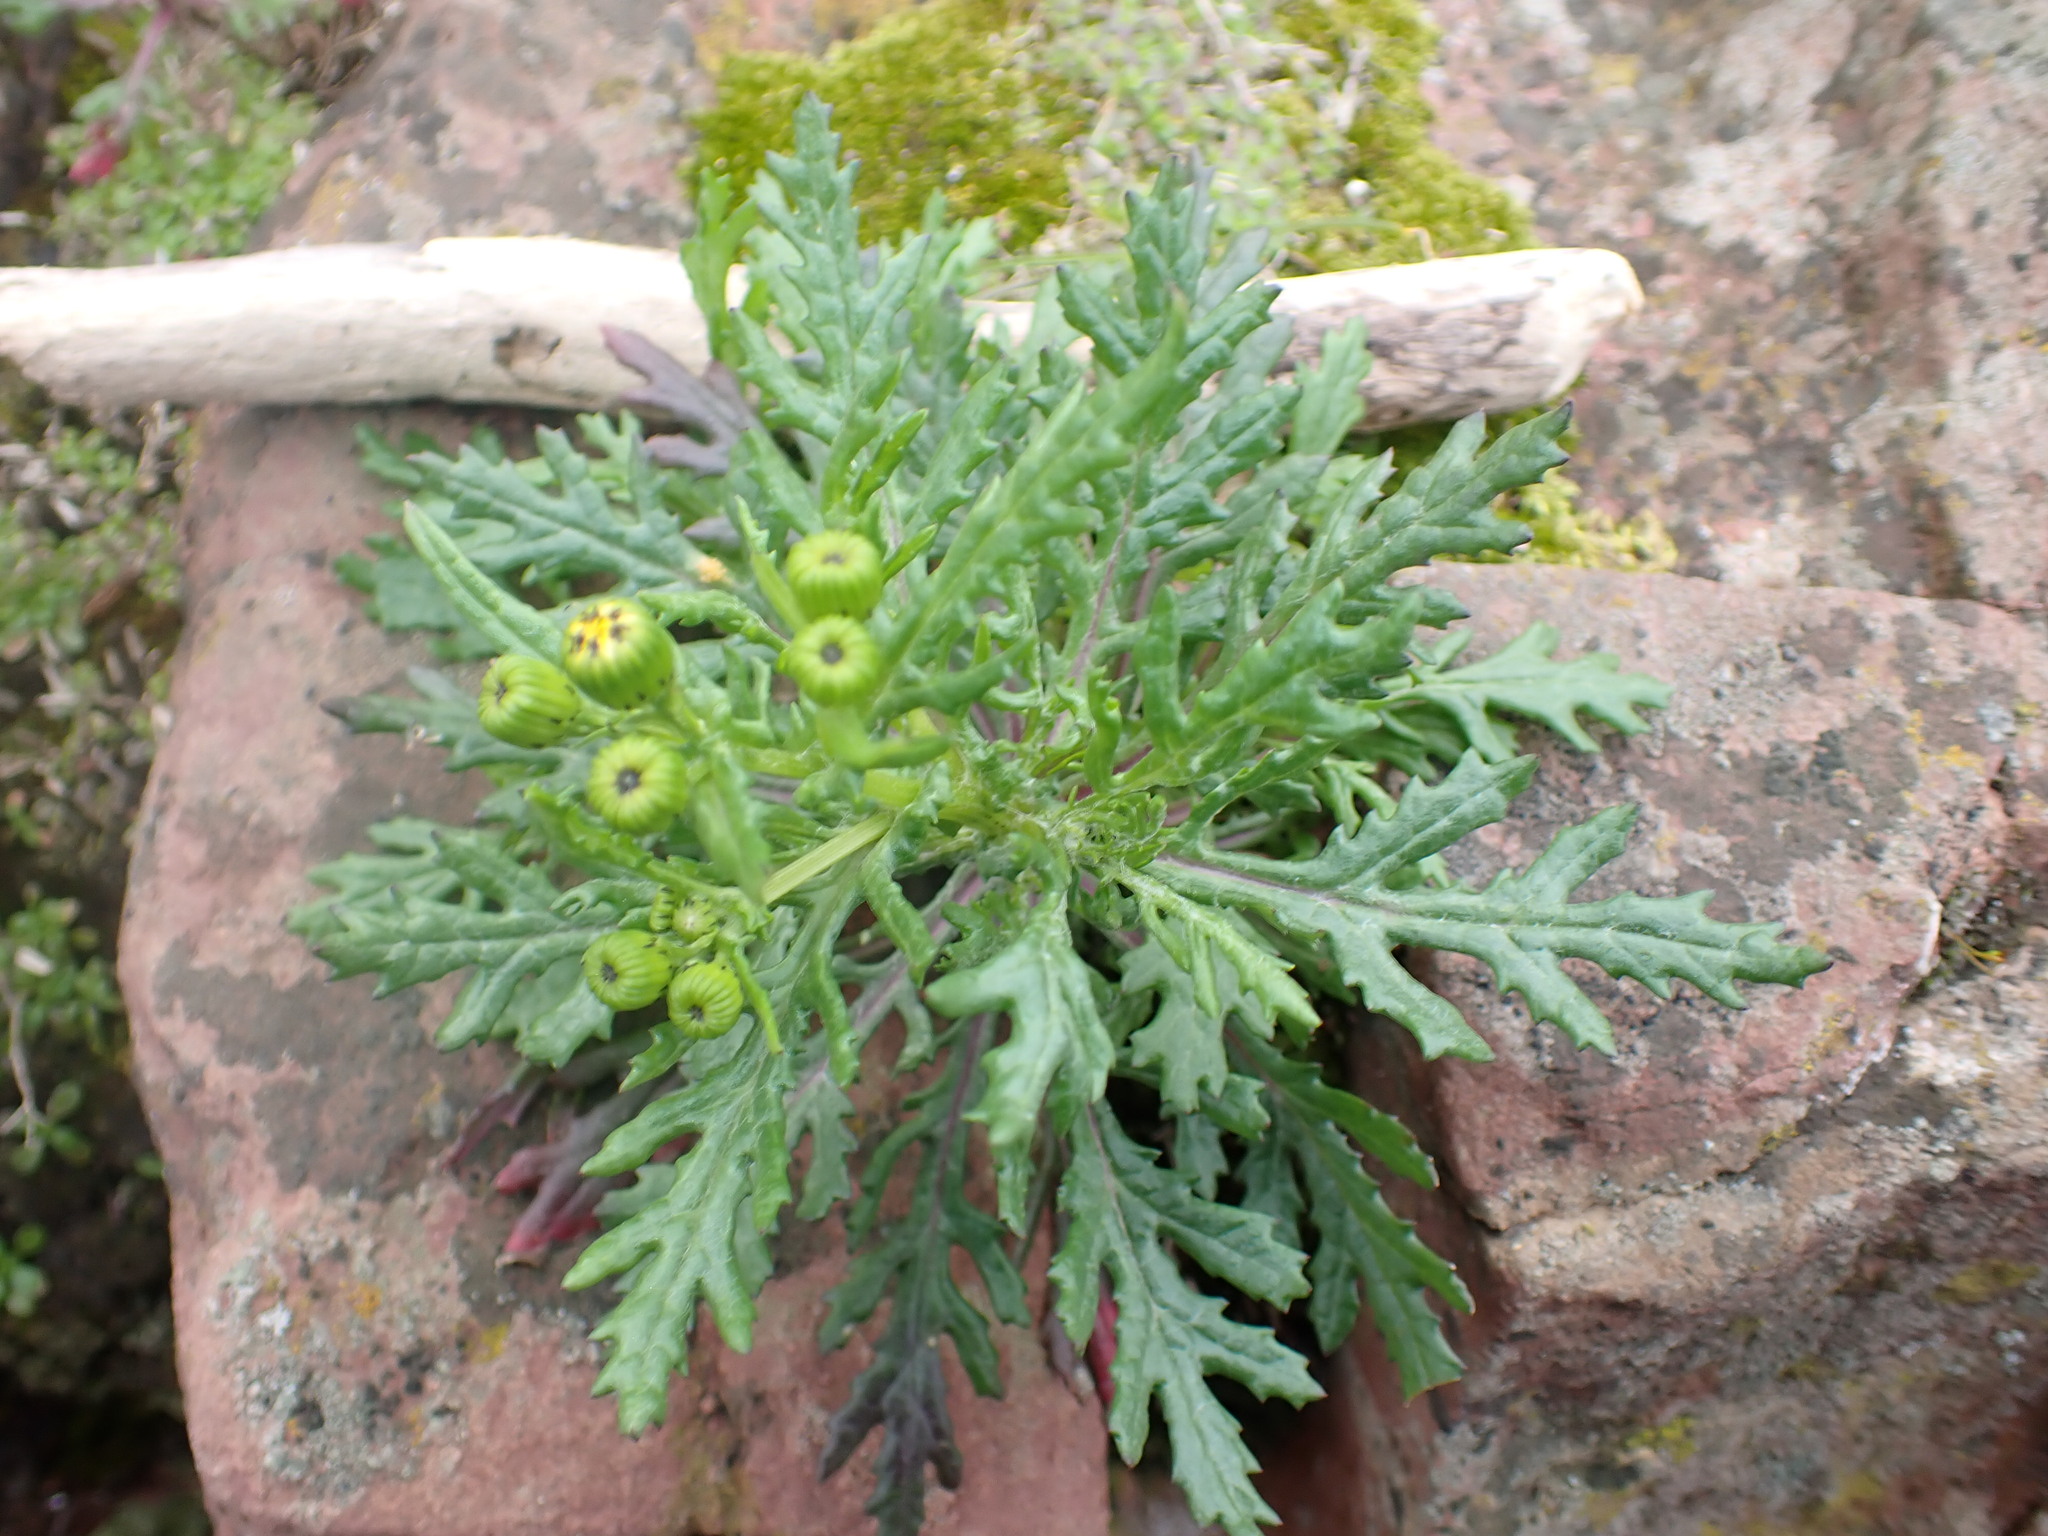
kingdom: Plantae
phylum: Tracheophyta
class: Magnoliopsida
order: Asterales
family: Asteraceae
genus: Senecio
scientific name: Senecio squalidus
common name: Oxford ragwort
